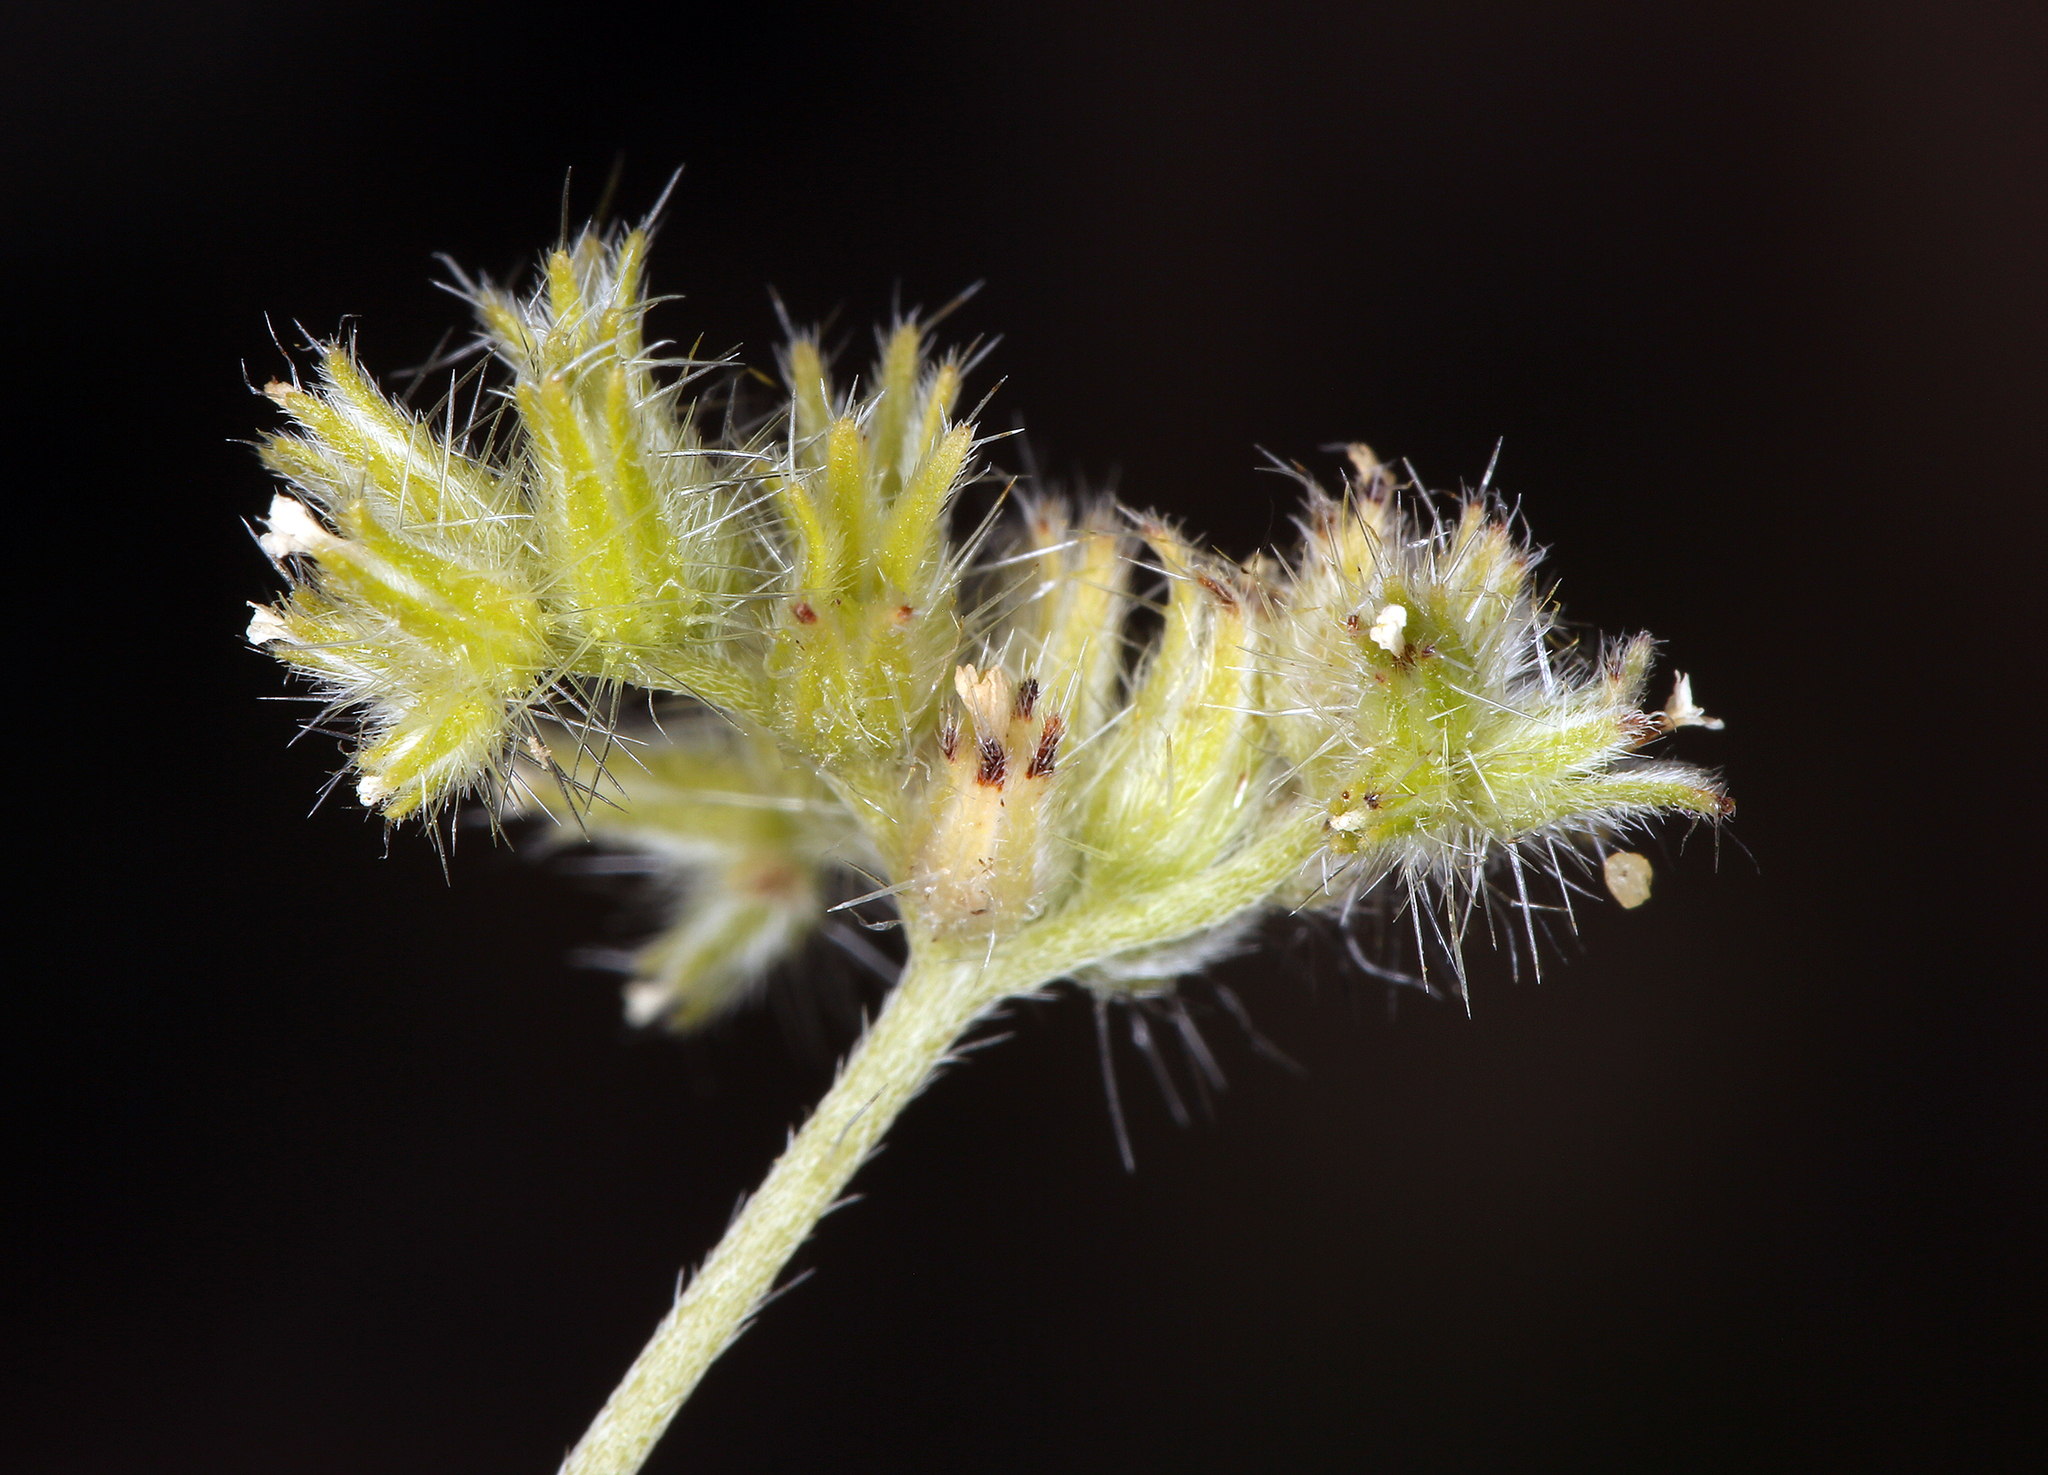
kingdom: Plantae
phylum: Tracheophyta
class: Magnoliopsida
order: Boraginales
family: Boraginaceae
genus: Cryptantha
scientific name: Cryptantha nevadensis
